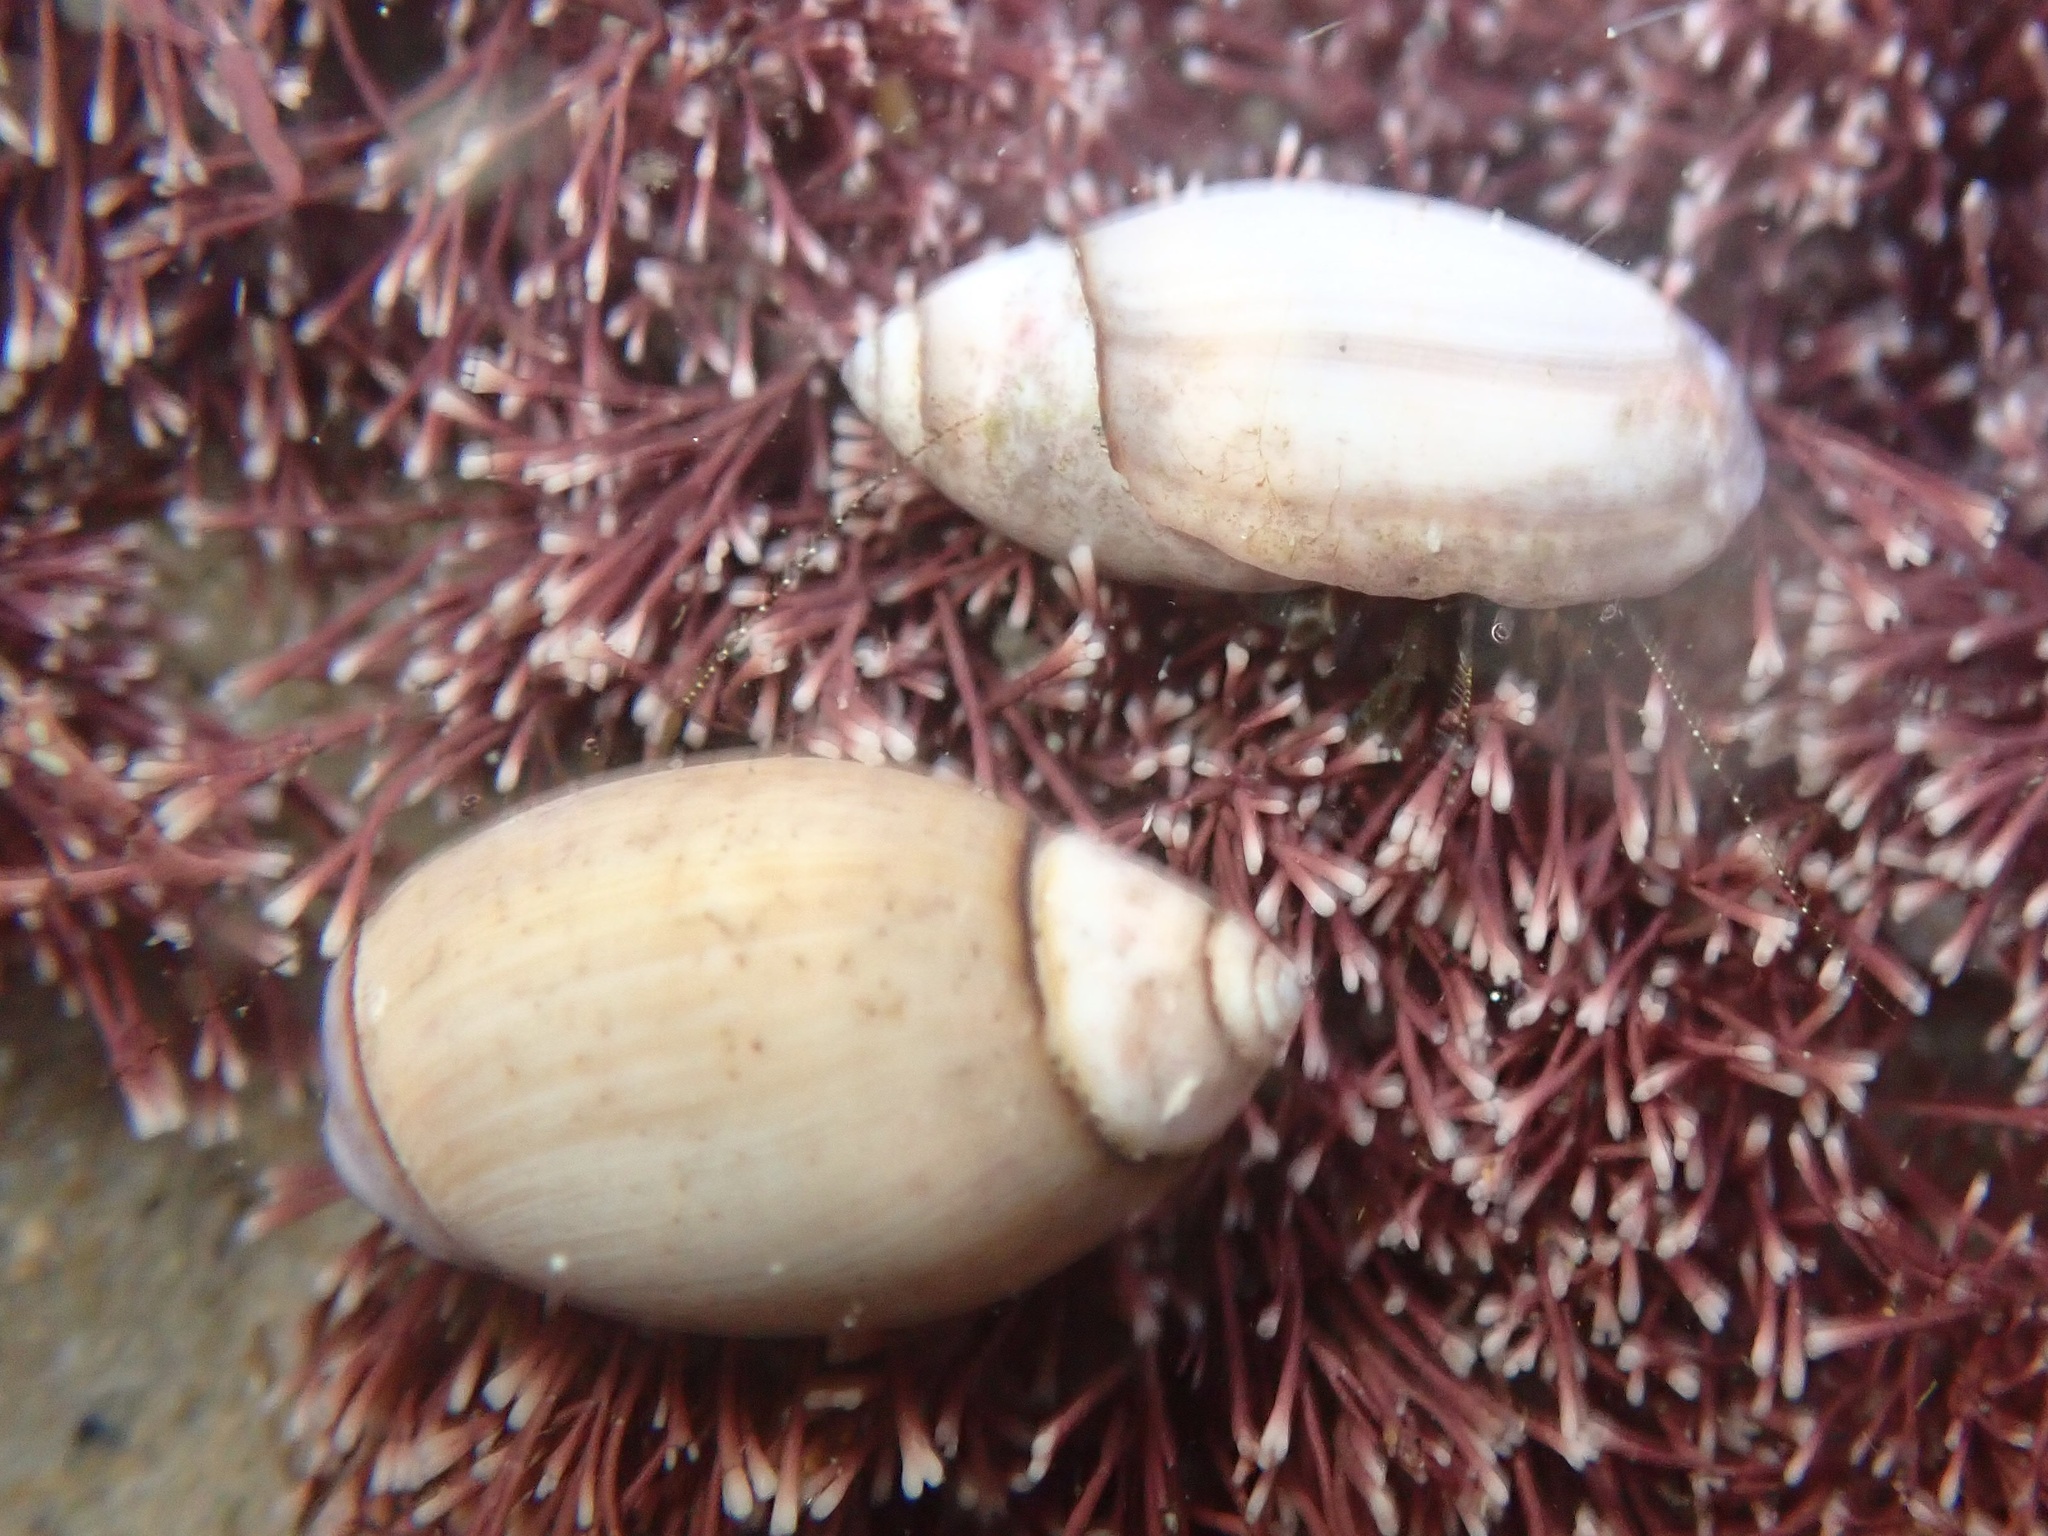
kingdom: Animalia
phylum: Mollusca
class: Gastropoda
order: Neogastropoda
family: Olividae
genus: Callianax
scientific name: Callianax biplicata
